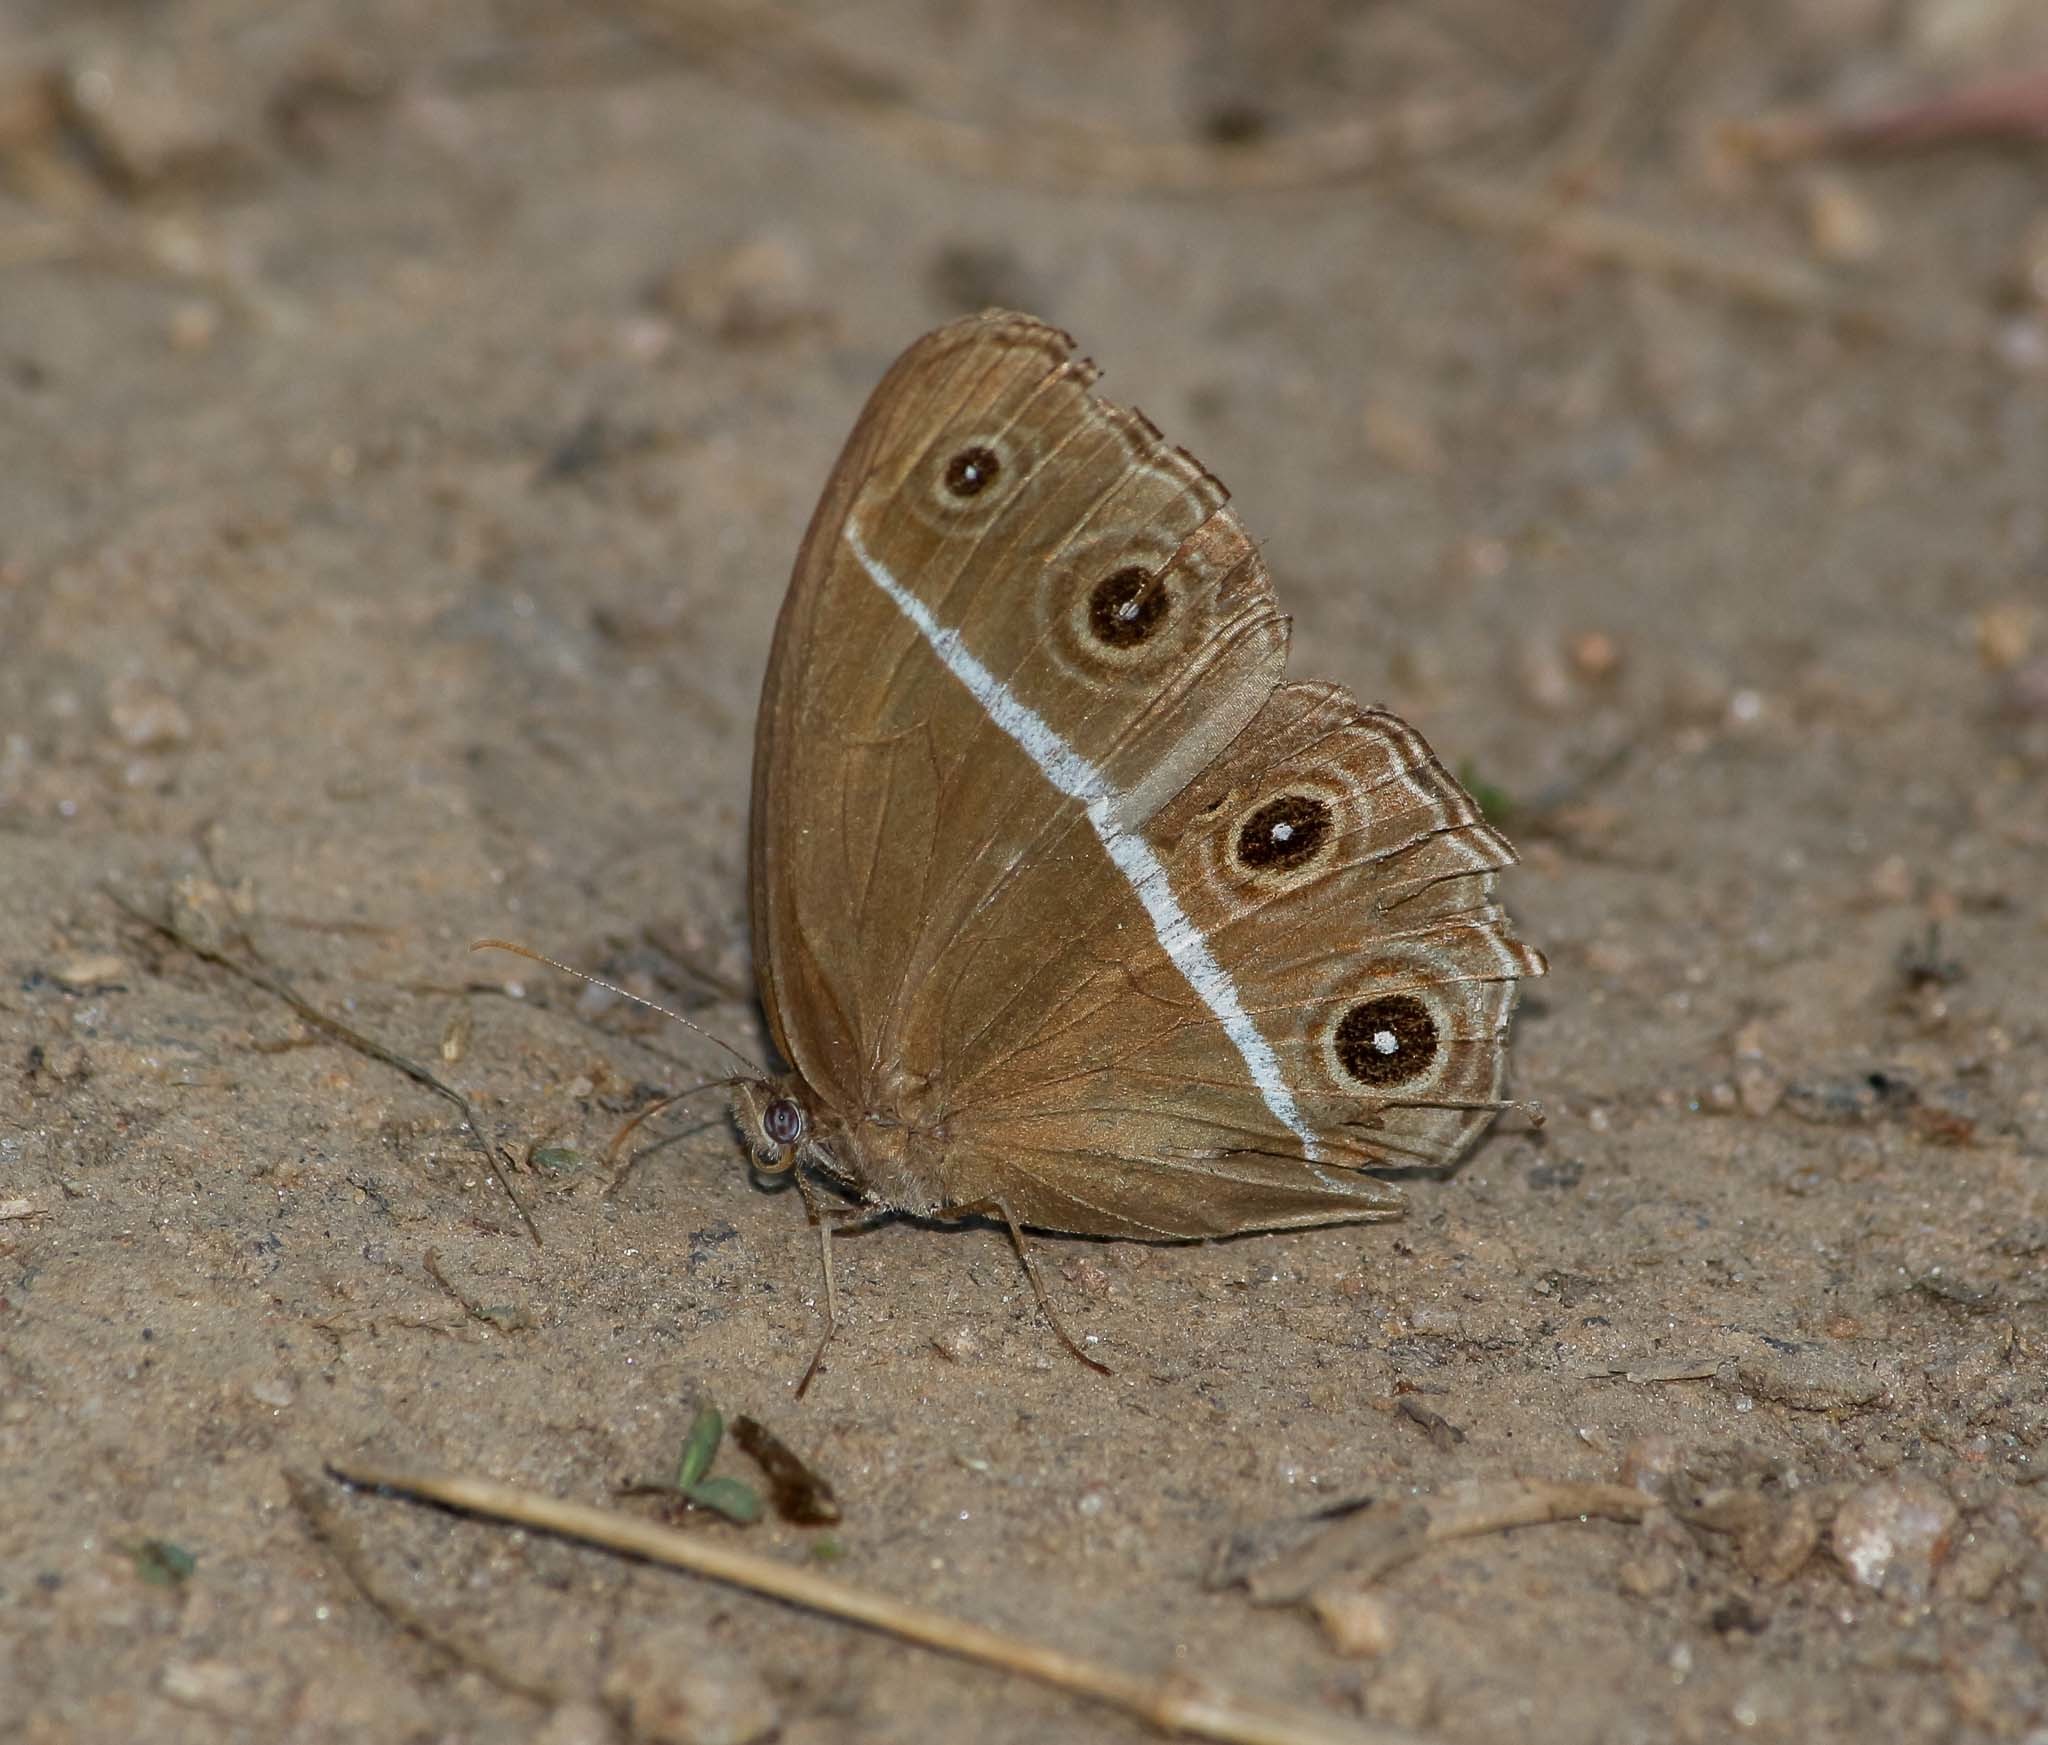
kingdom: Animalia
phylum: Arthropoda
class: Insecta
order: Lepidoptera
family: Nymphalidae
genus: Orsotriaena
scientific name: Orsotriaena medus
